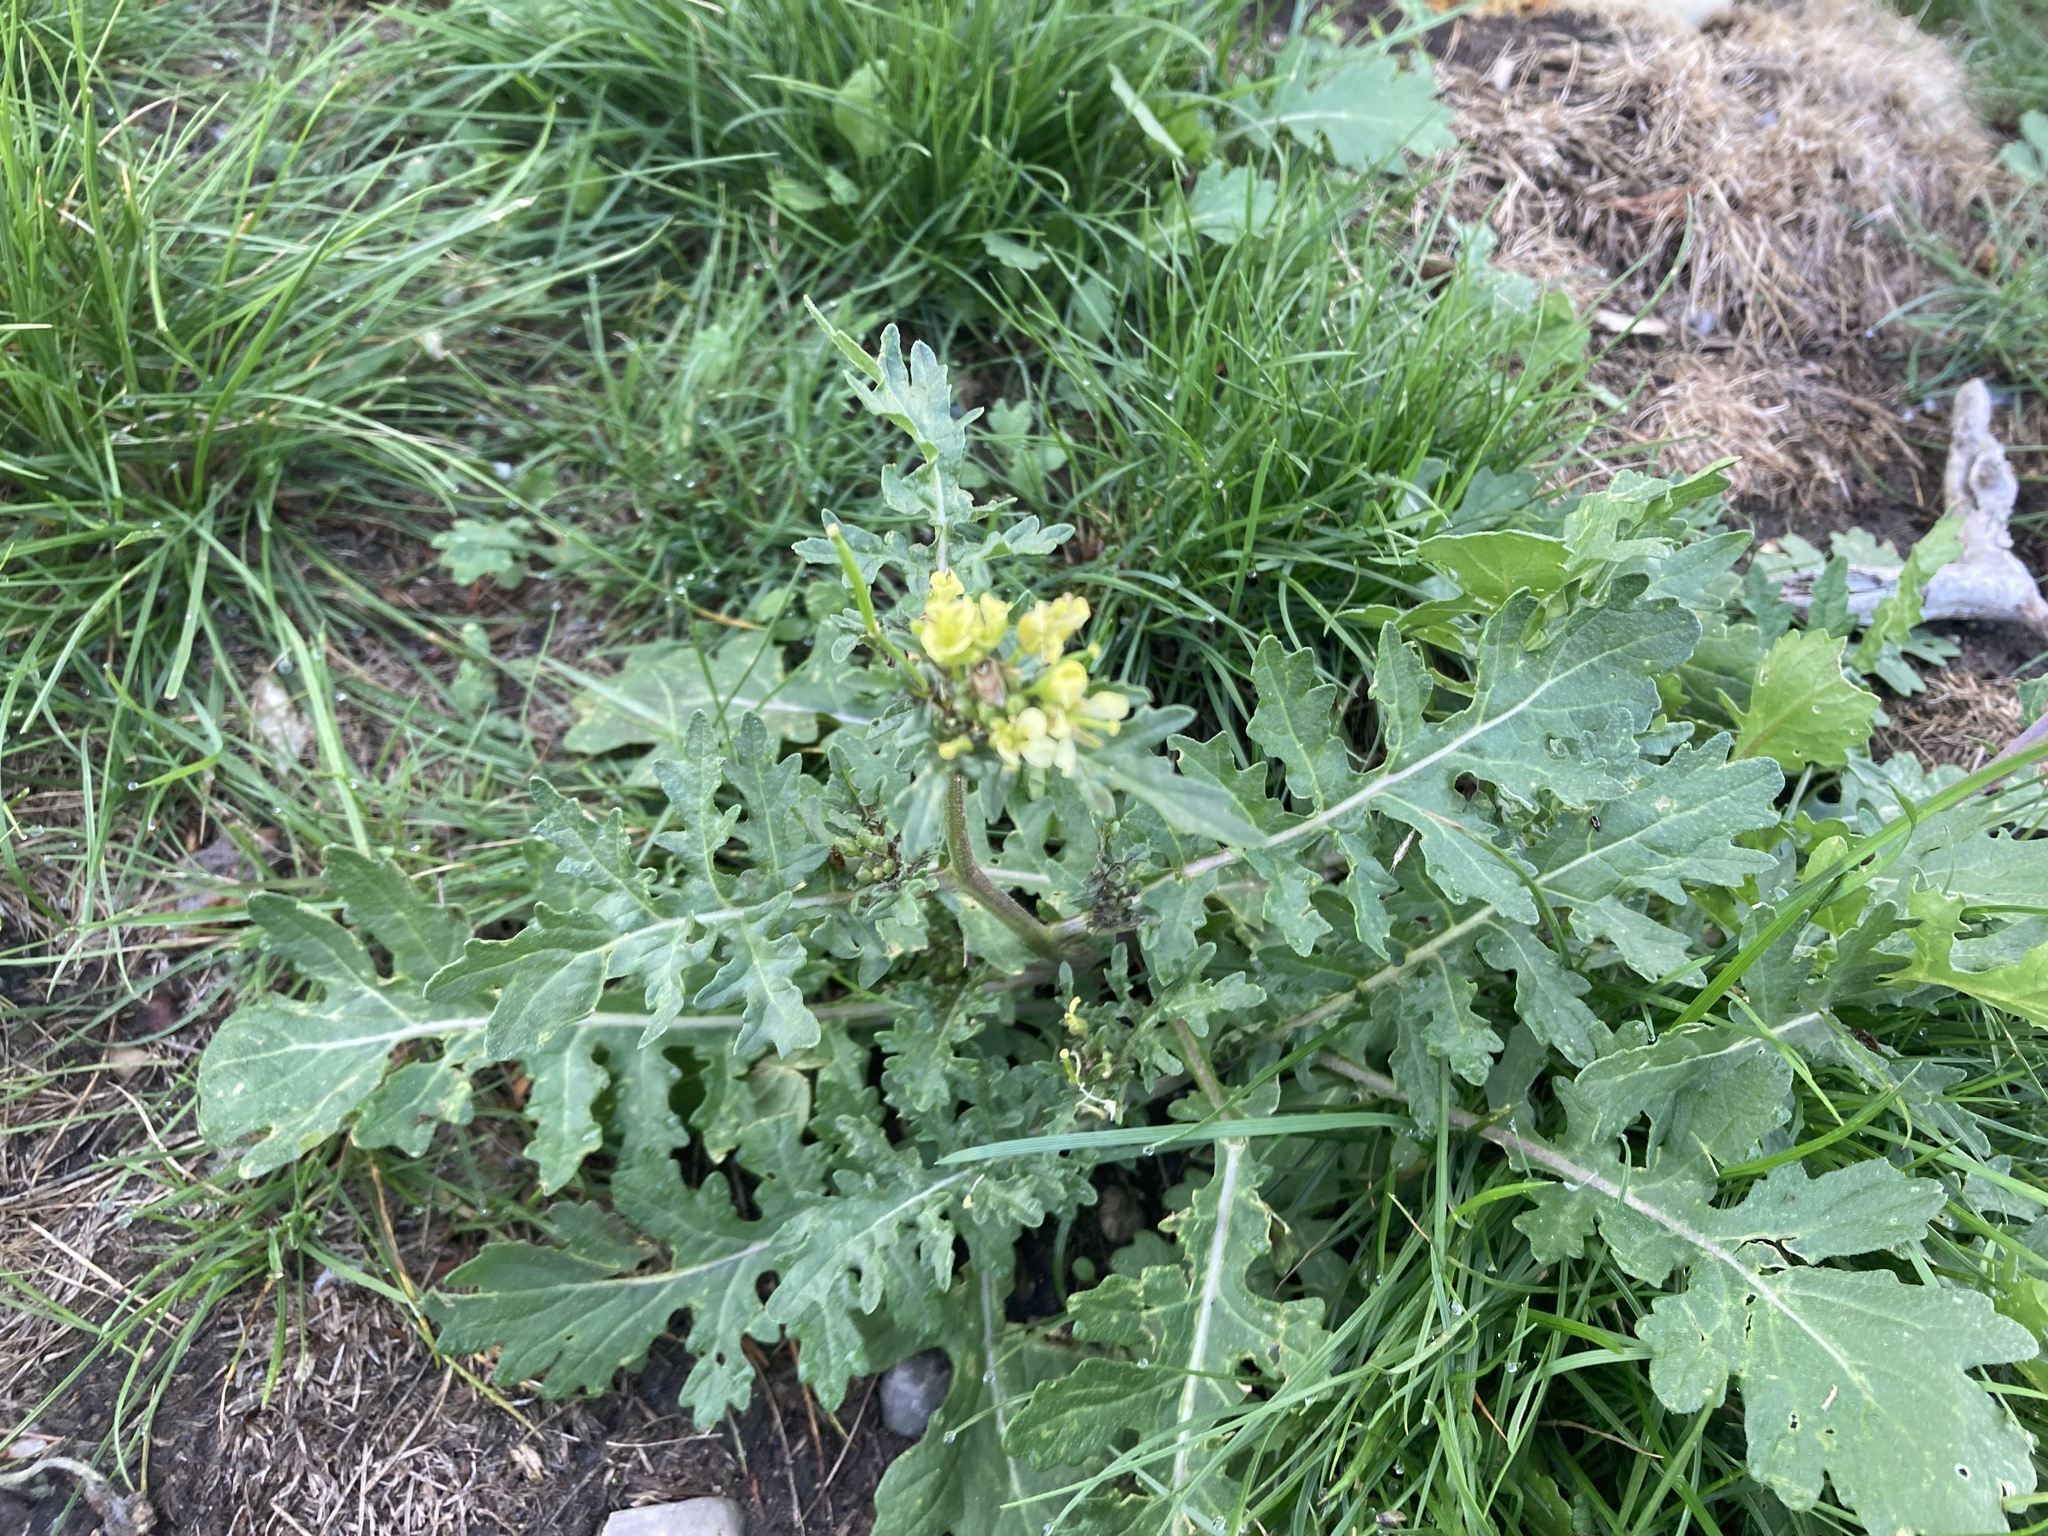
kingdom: Plantae
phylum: Tracheophyta
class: Magnoliopsida
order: Brassicales
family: Brassicaceae
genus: Erucastrum
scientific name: Erucastrum gallicum
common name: Hairy rocket
